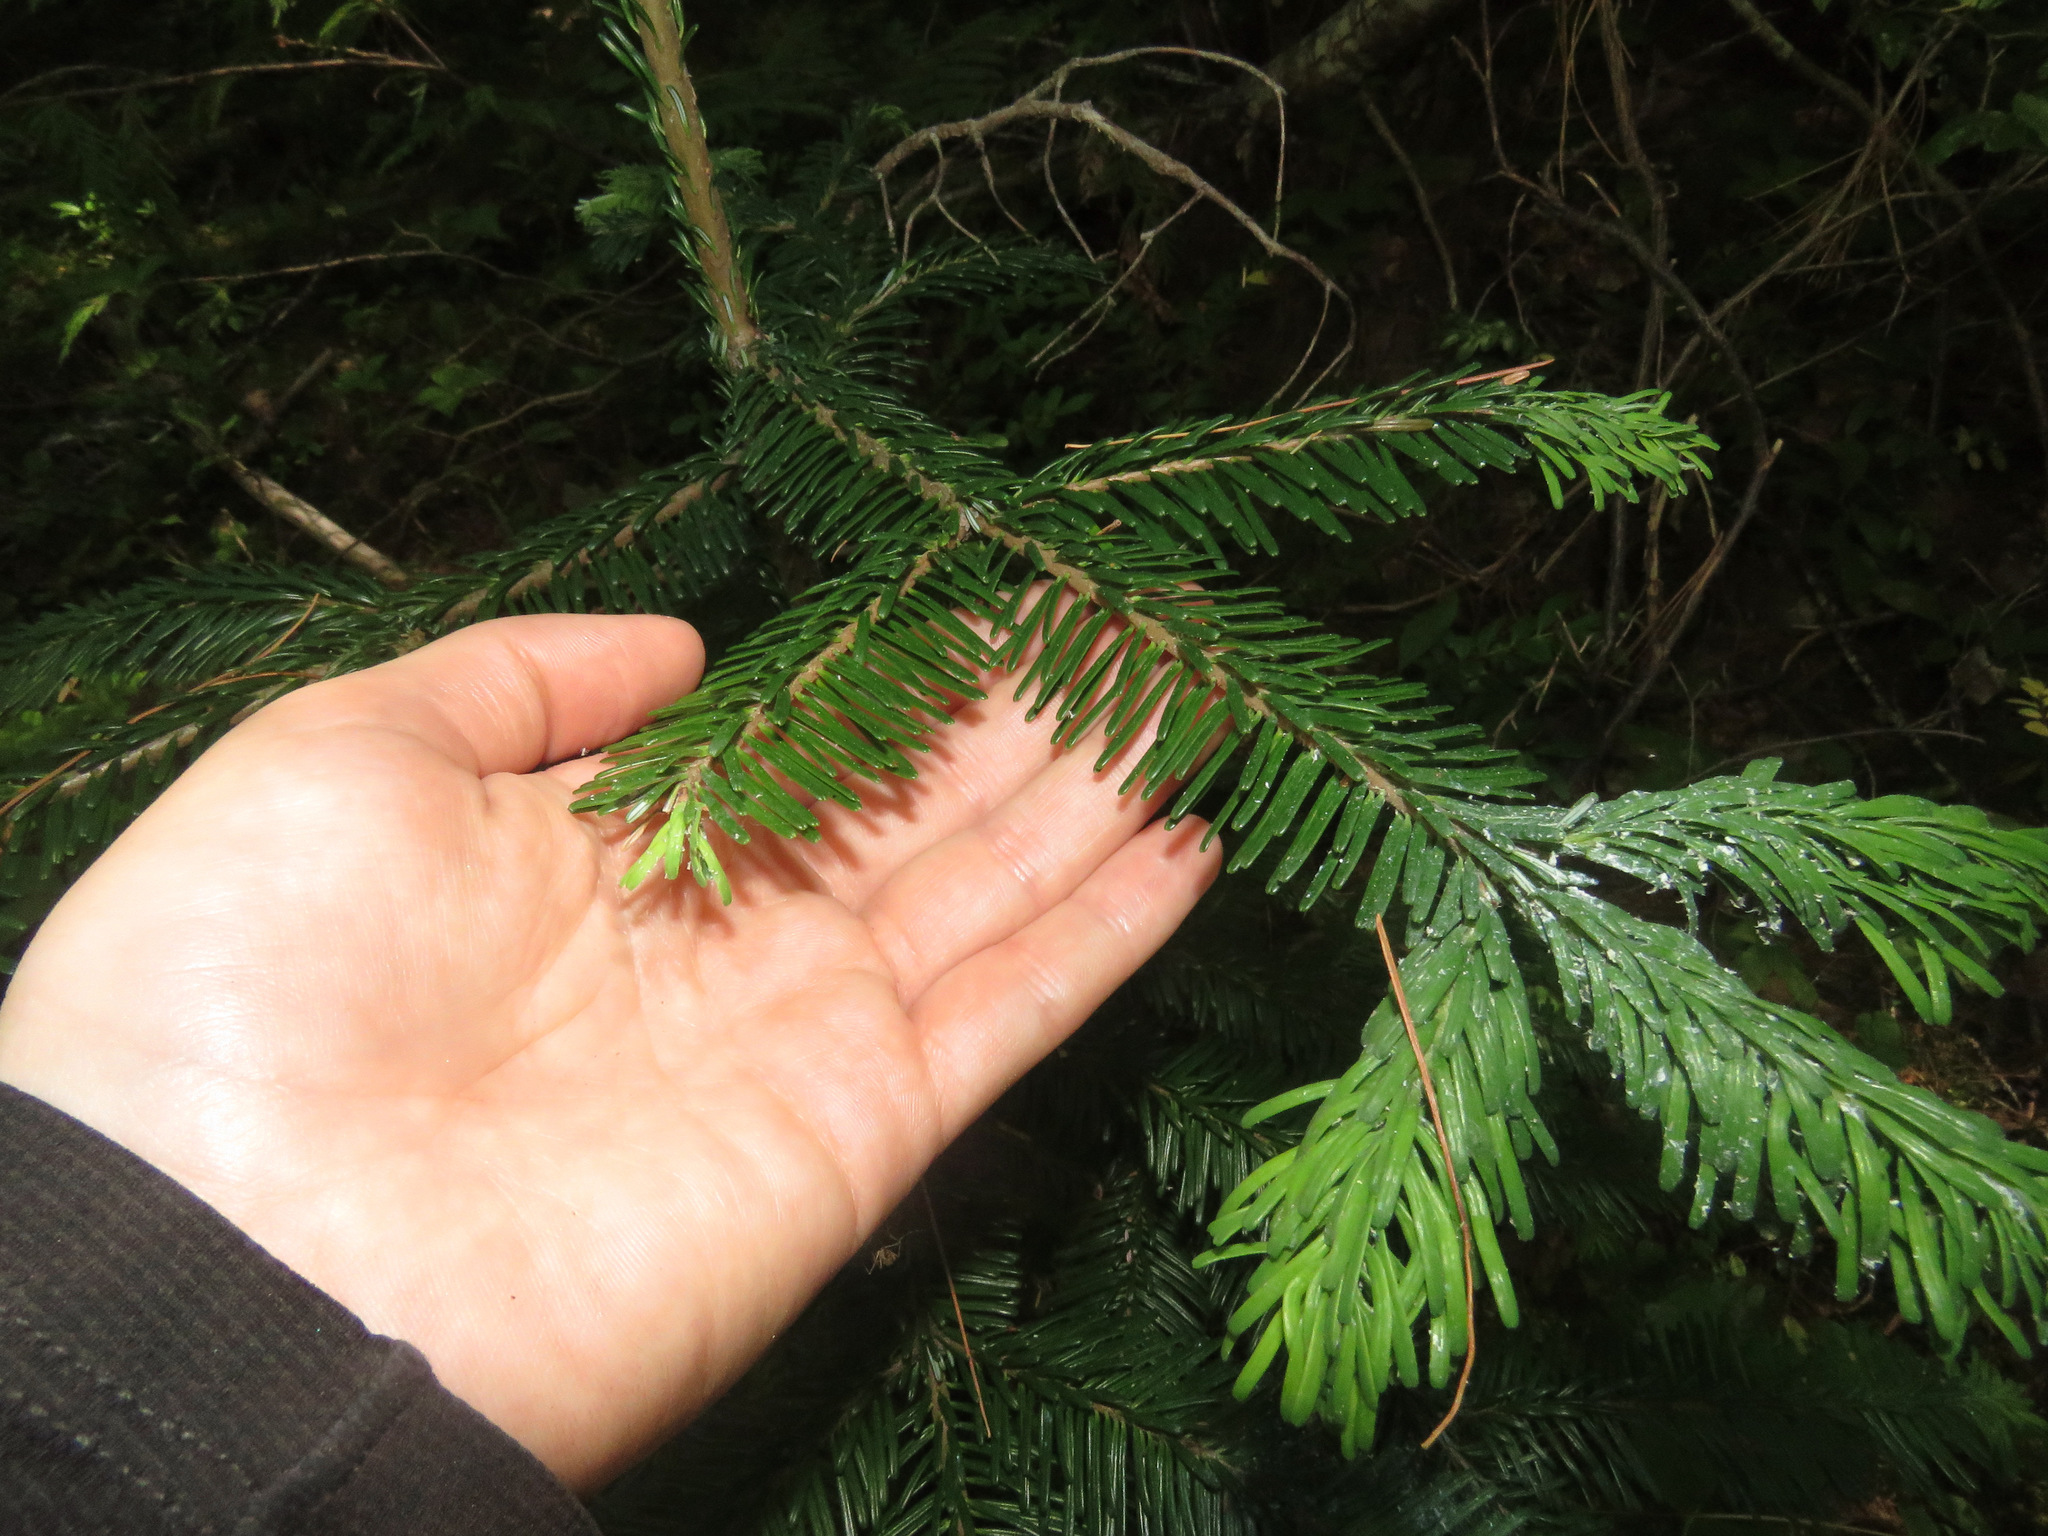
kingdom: Plantae
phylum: Tracheophyta
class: Pinopsida
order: Pinales
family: Pinaceae
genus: Abies
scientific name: Abies amabilis
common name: Pacific silver fir
